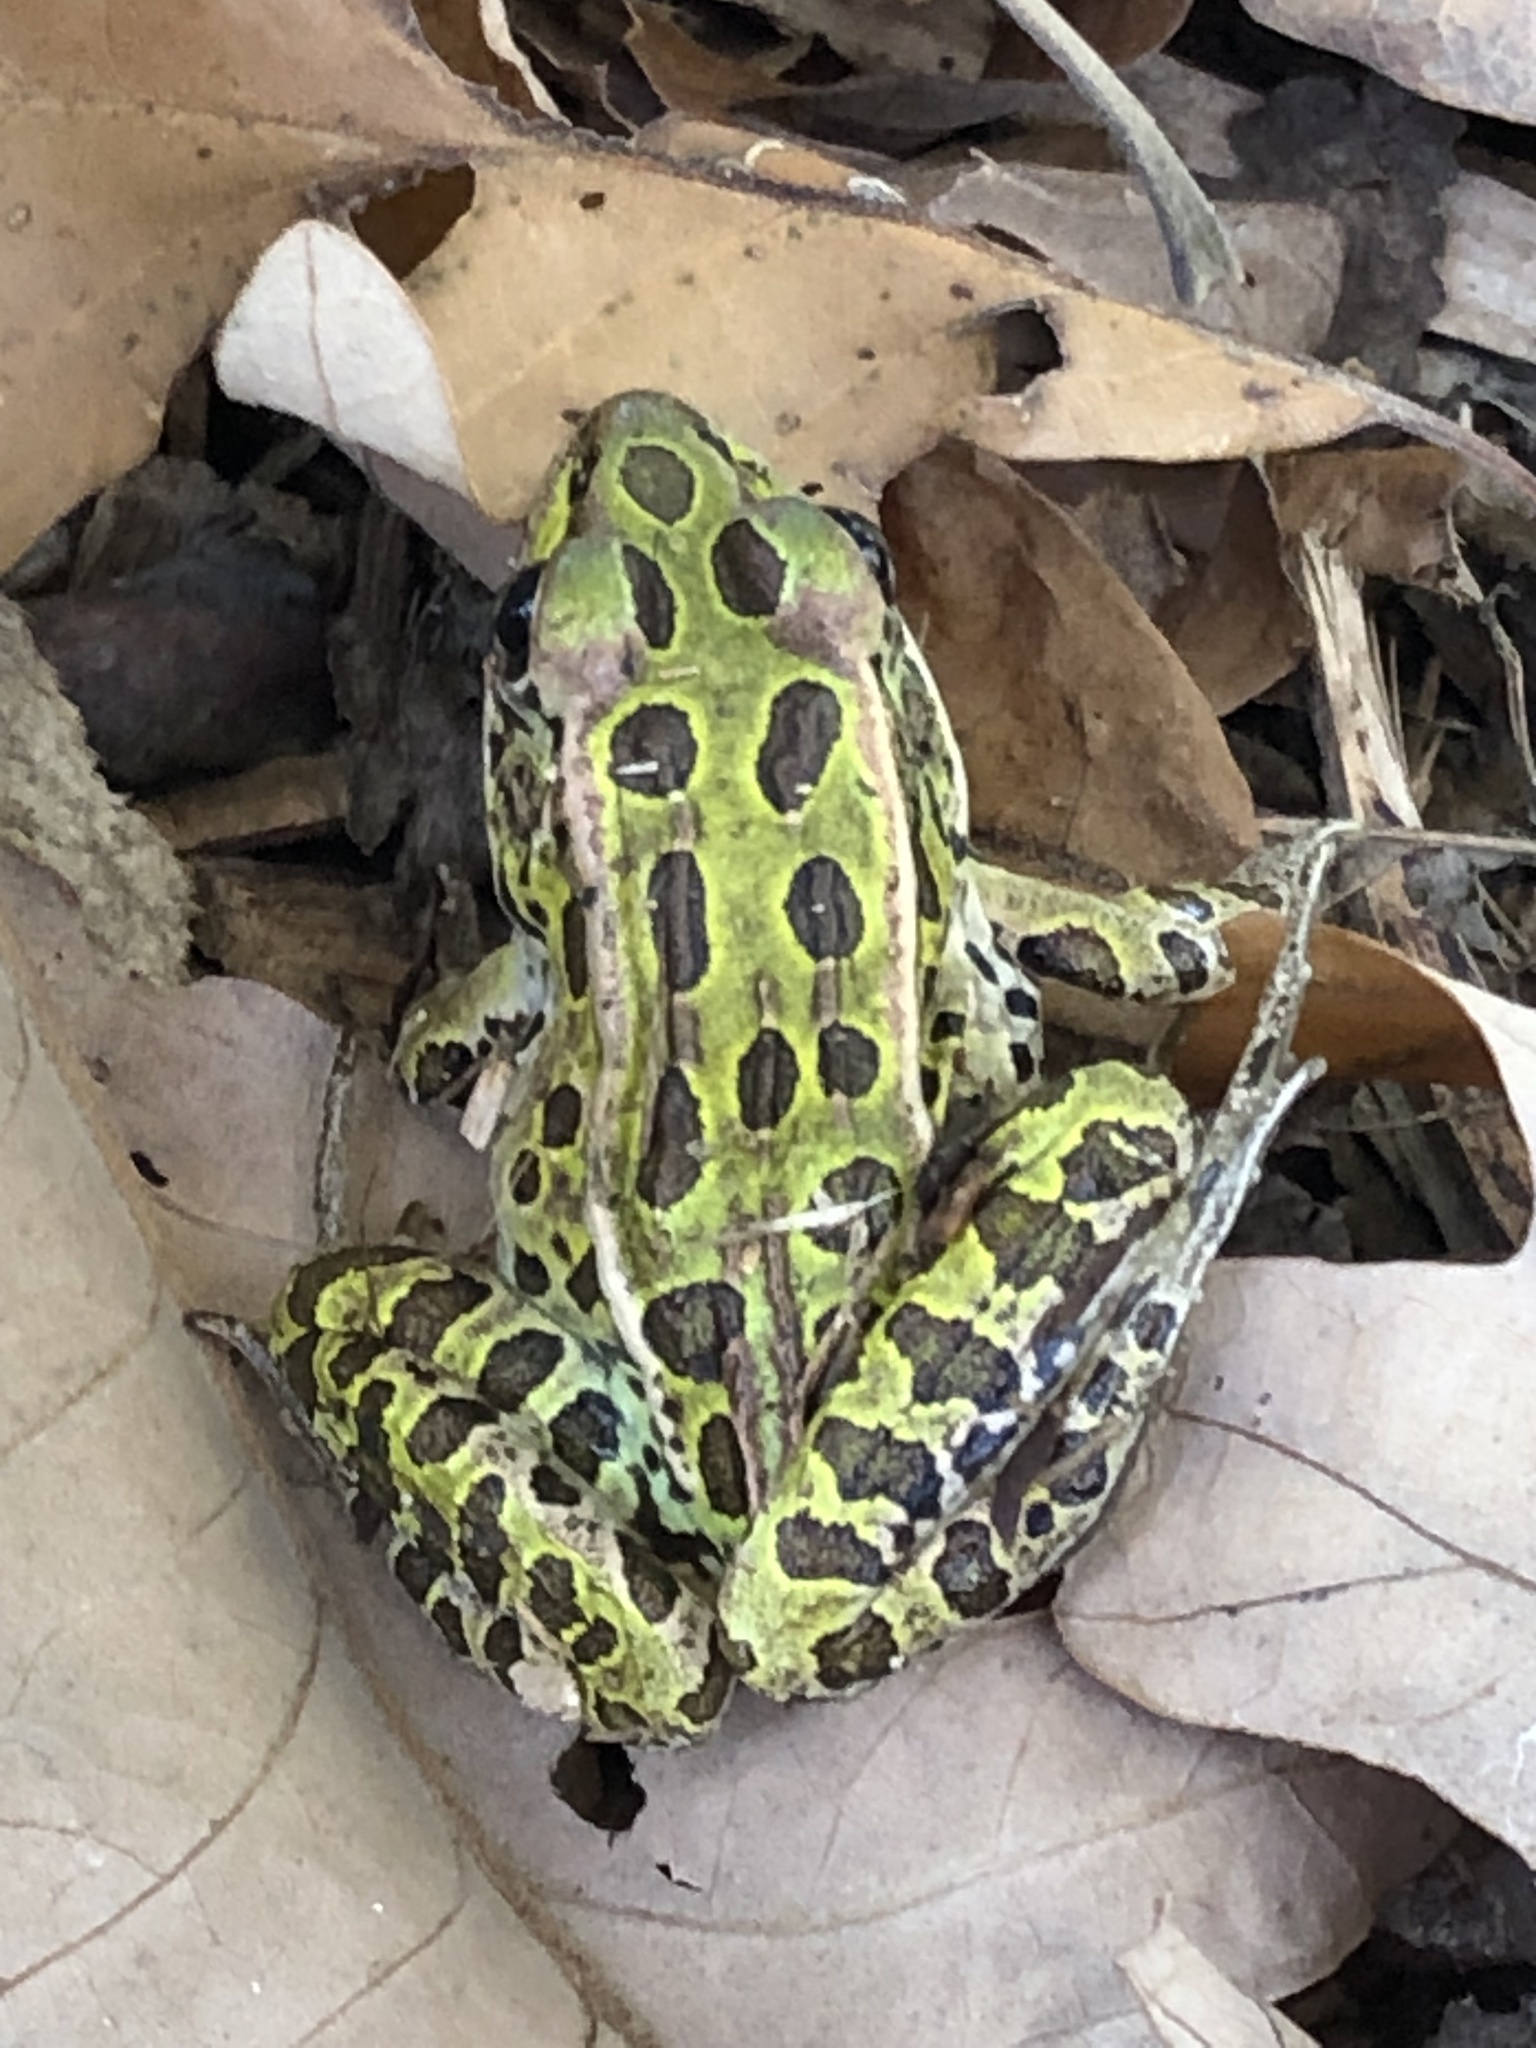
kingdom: Animalia
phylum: Chordata
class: Amphibia
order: Anura
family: Ranidae
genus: Lithobates
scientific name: Lithobates pipiens
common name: Northern leopard frog
